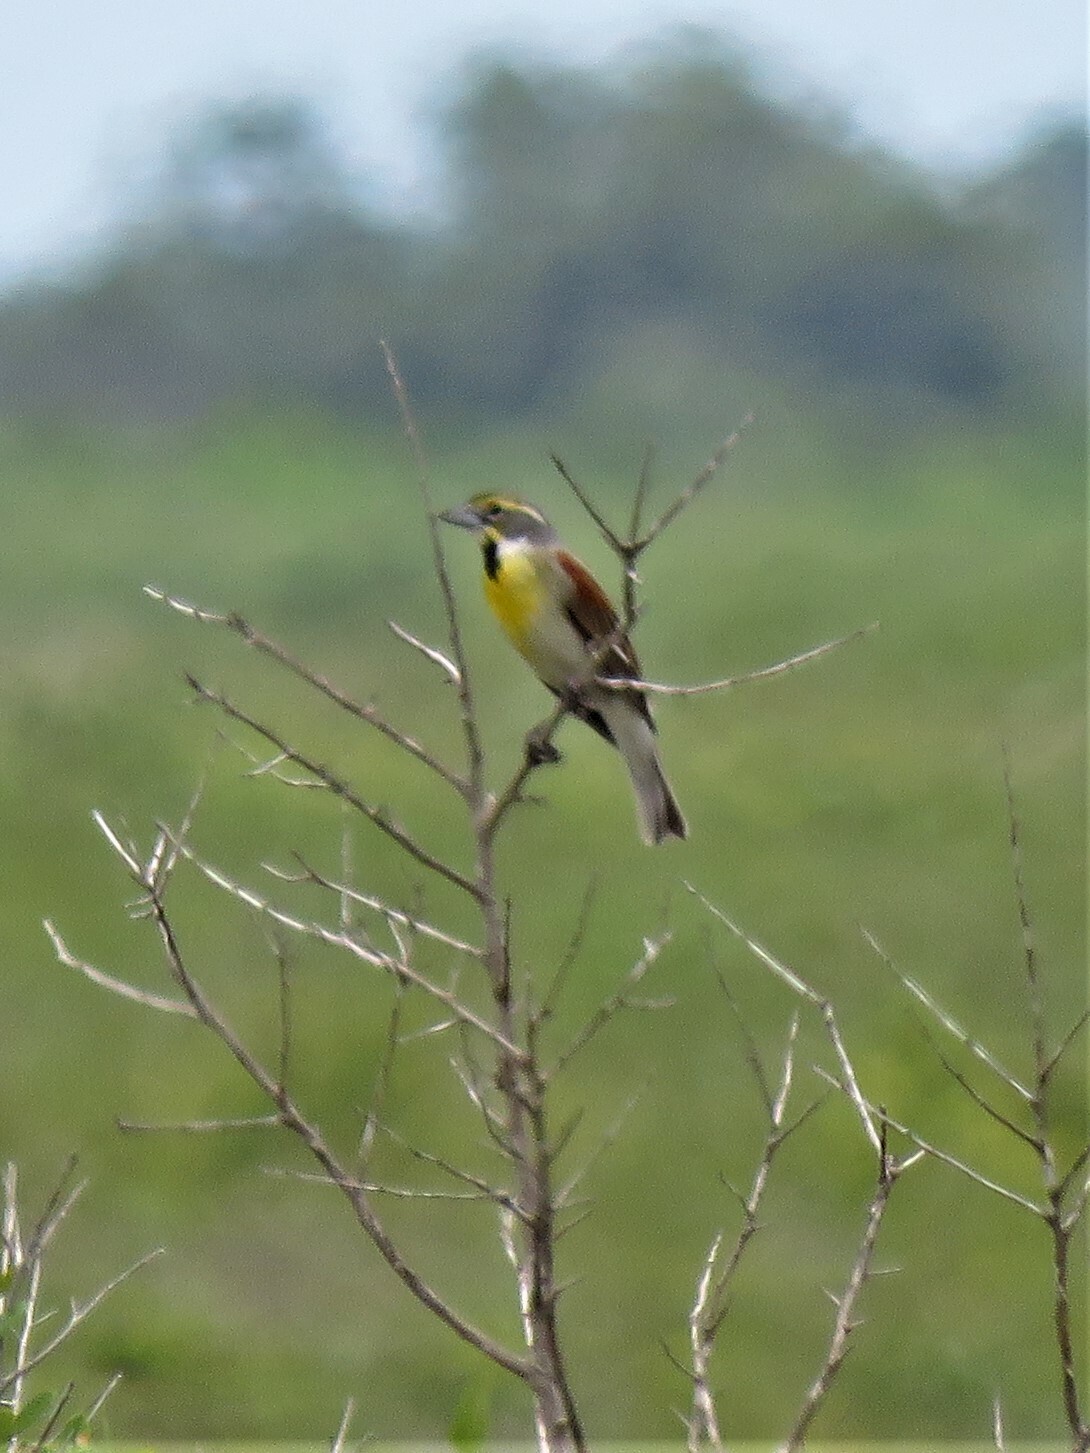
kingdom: Animalia
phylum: Chordata
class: Aves
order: Passeriformes
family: Cardinalidae
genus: Spiza
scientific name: Spiza americana
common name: Dickcissel
